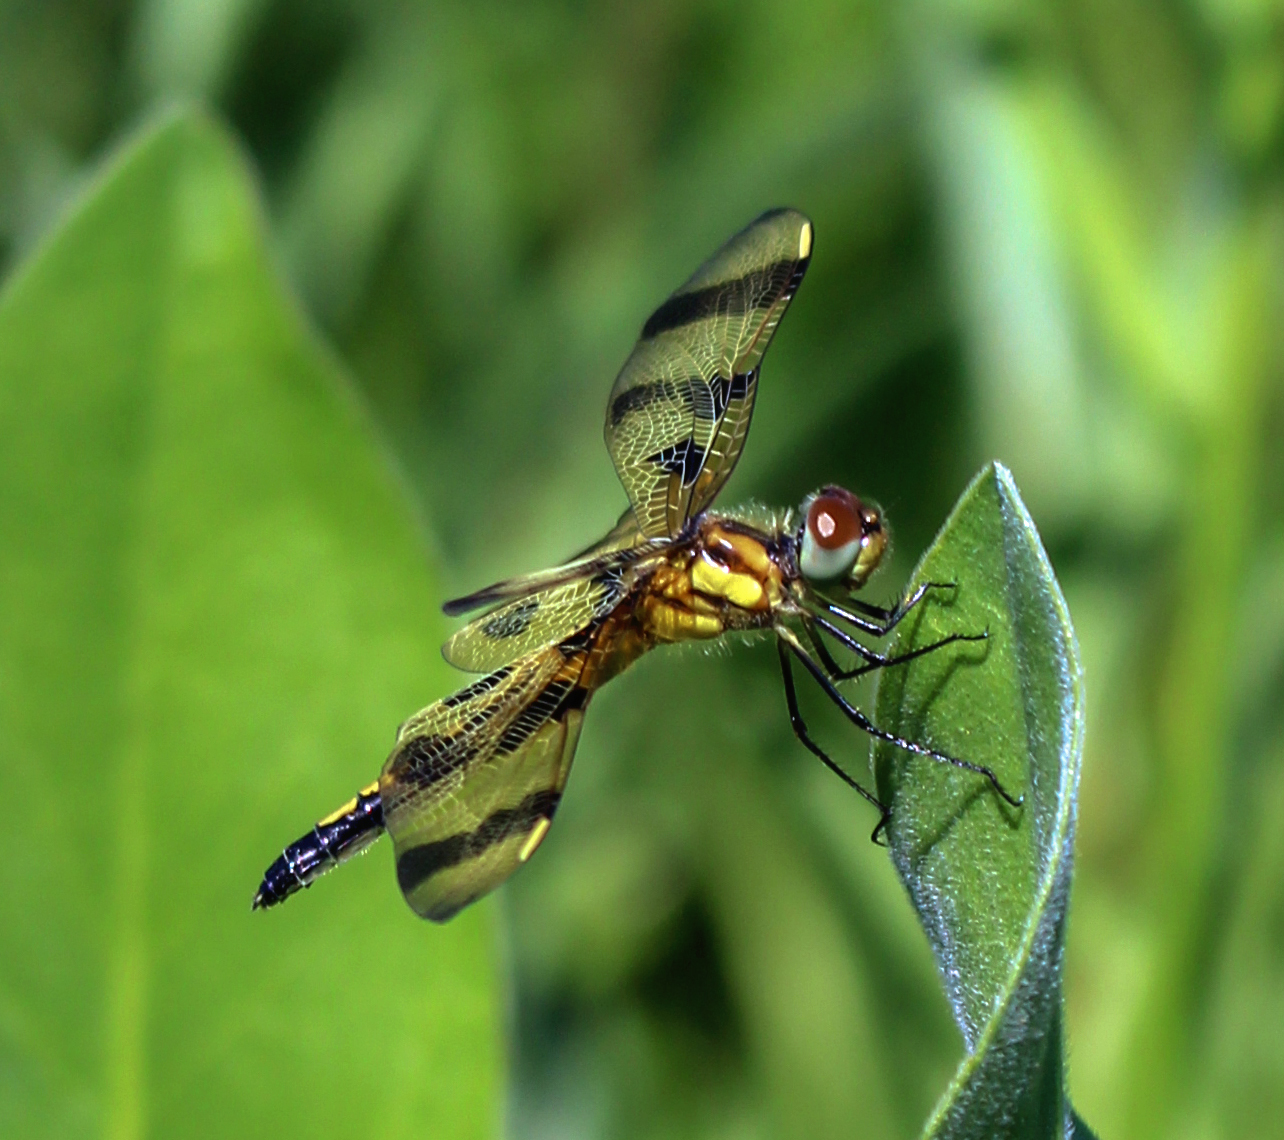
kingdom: Animalia
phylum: Arthropoda
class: Insecta
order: Odonata
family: Libellulidae
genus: Celithemis
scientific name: Celithemis eponina
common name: Halloween pennant
